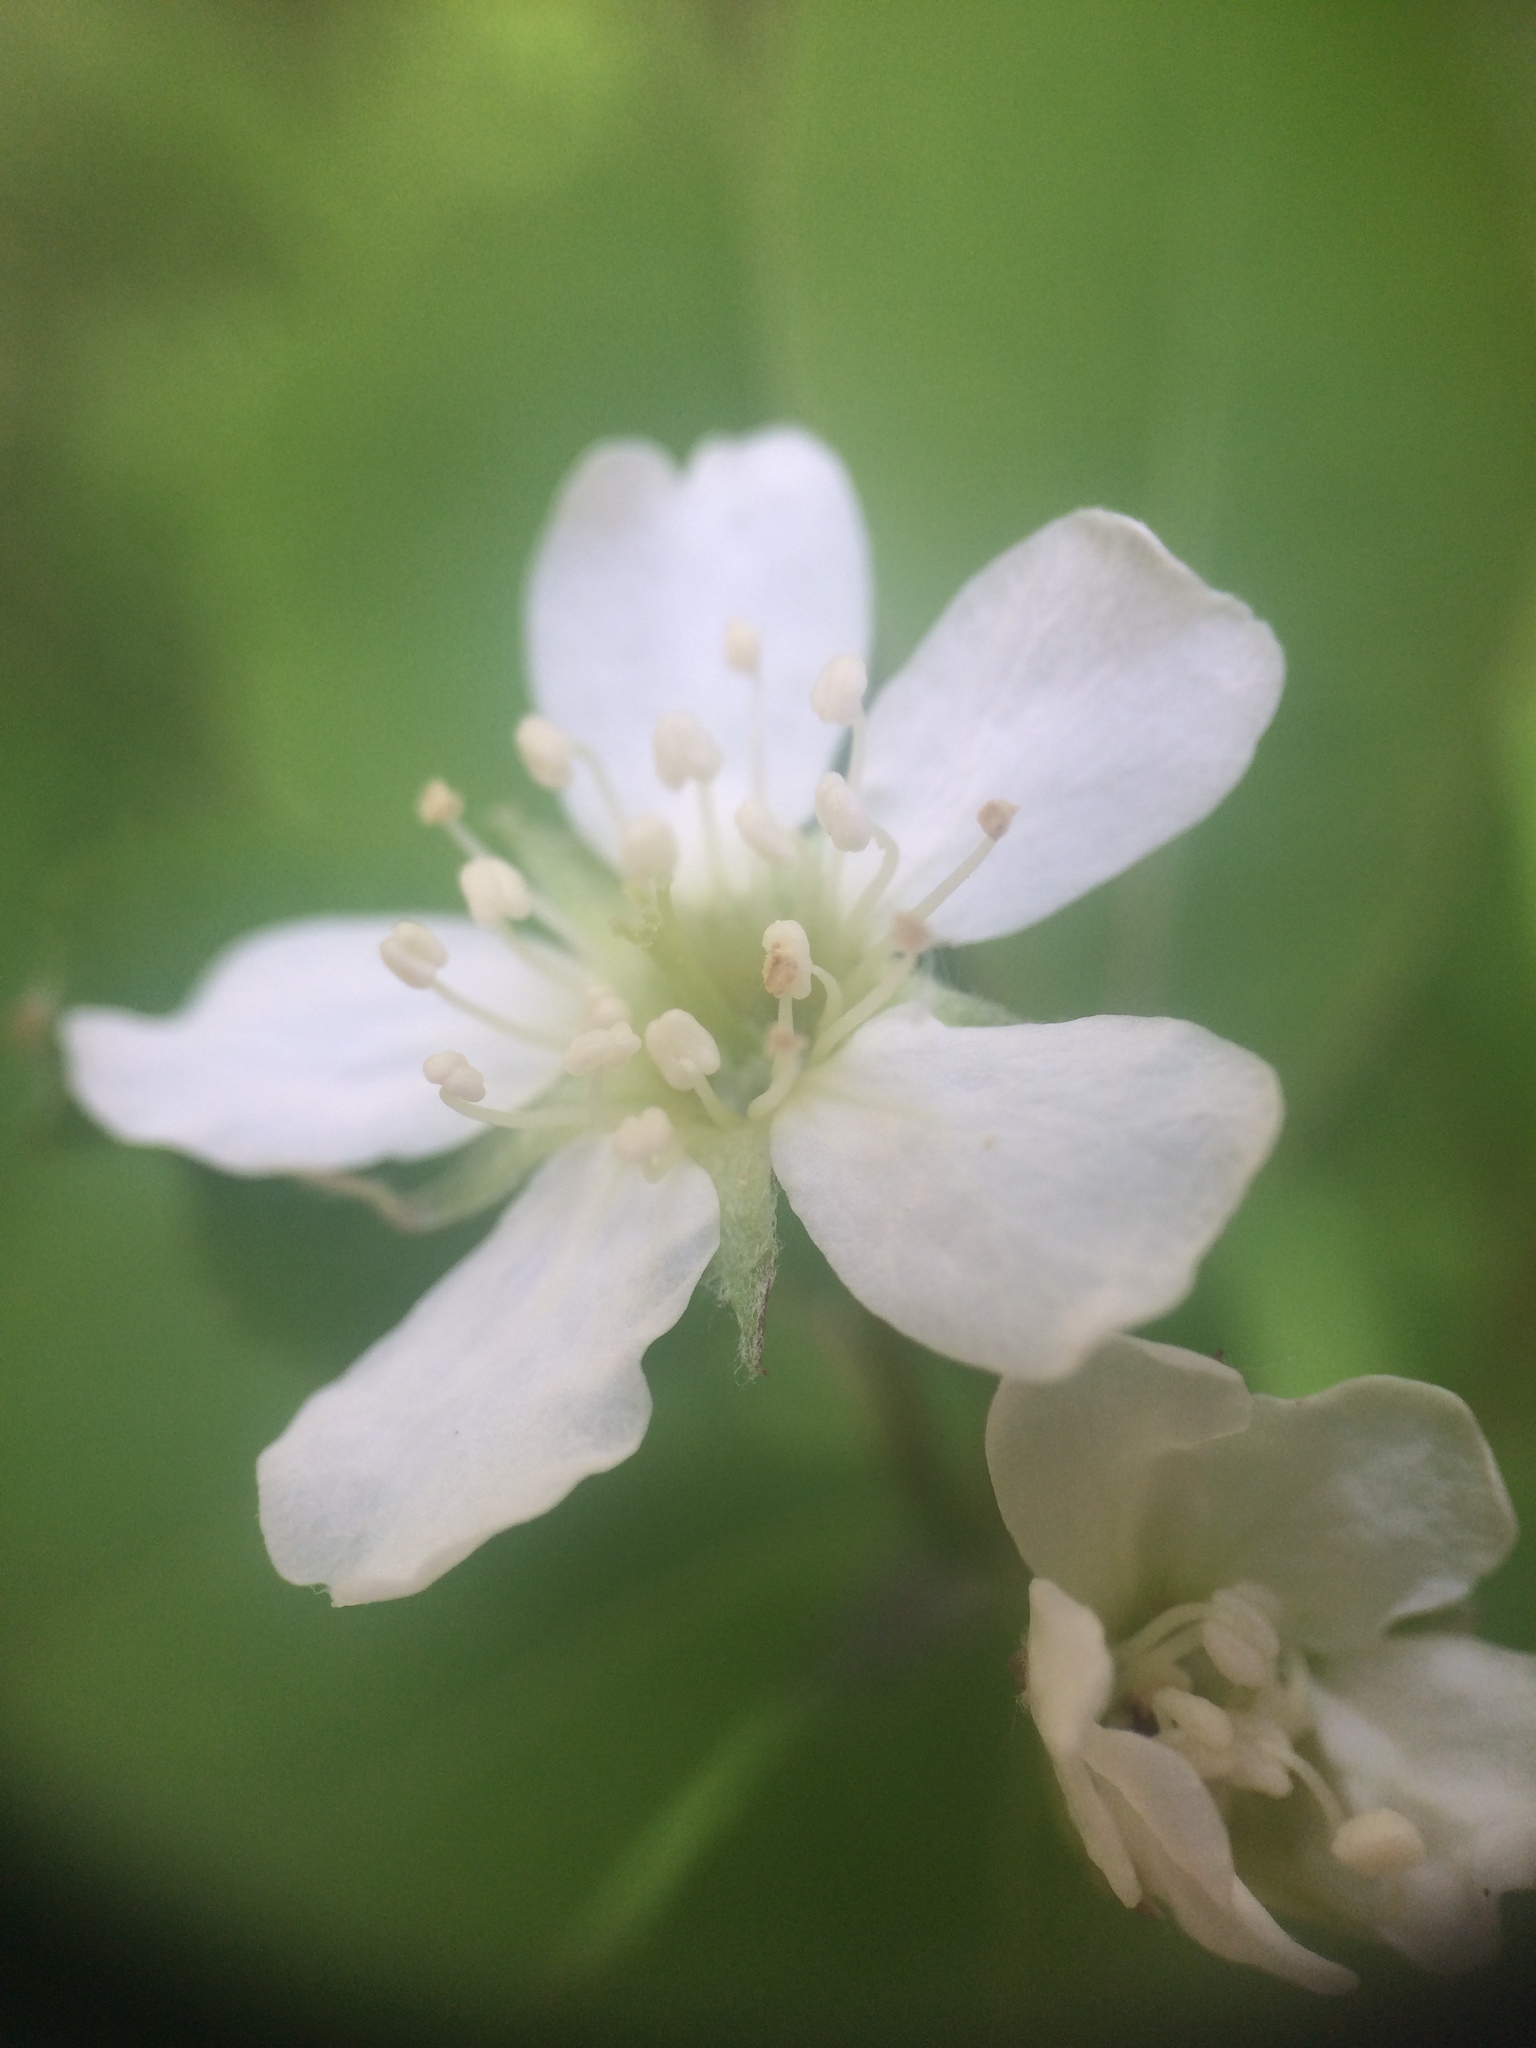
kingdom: Plantae
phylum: Tracheophyta
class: Magnoliopsida
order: Rosales
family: Rosaceae
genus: Amelanchier
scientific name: Amelanchier bartramiana
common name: Mountain serviceberry
